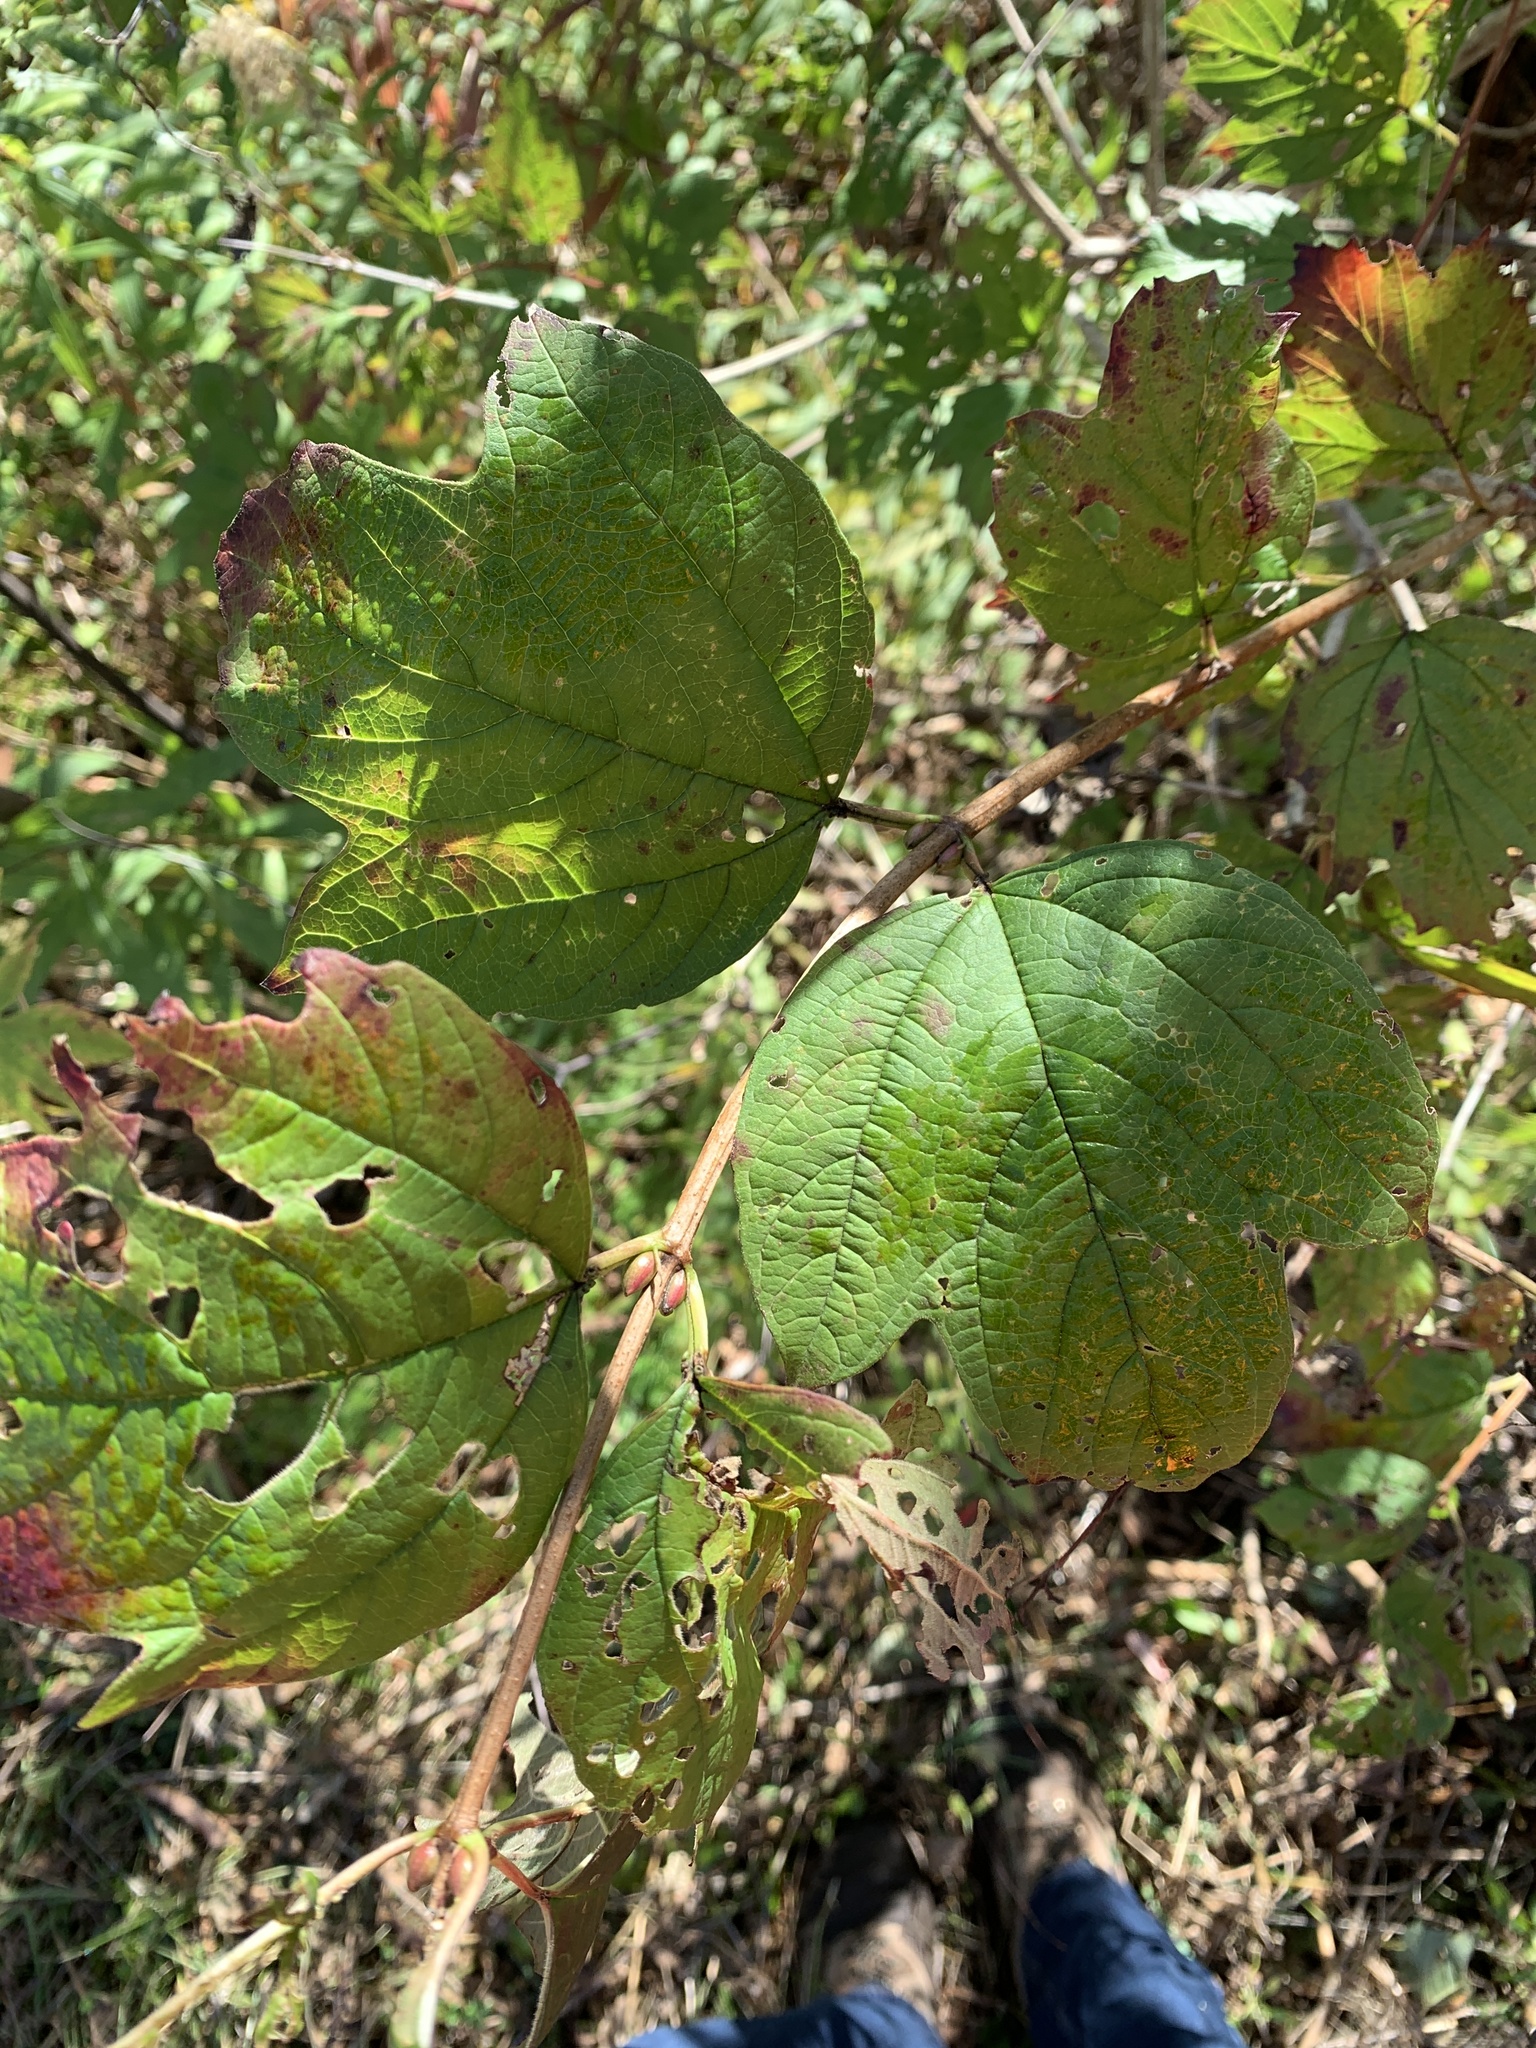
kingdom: Plantae
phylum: Tracheophyta
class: Magnoliopsida
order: Dipsacales
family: Viburnaceae
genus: Viburnum
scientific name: Viburnum opulus
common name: Guelder-rose
